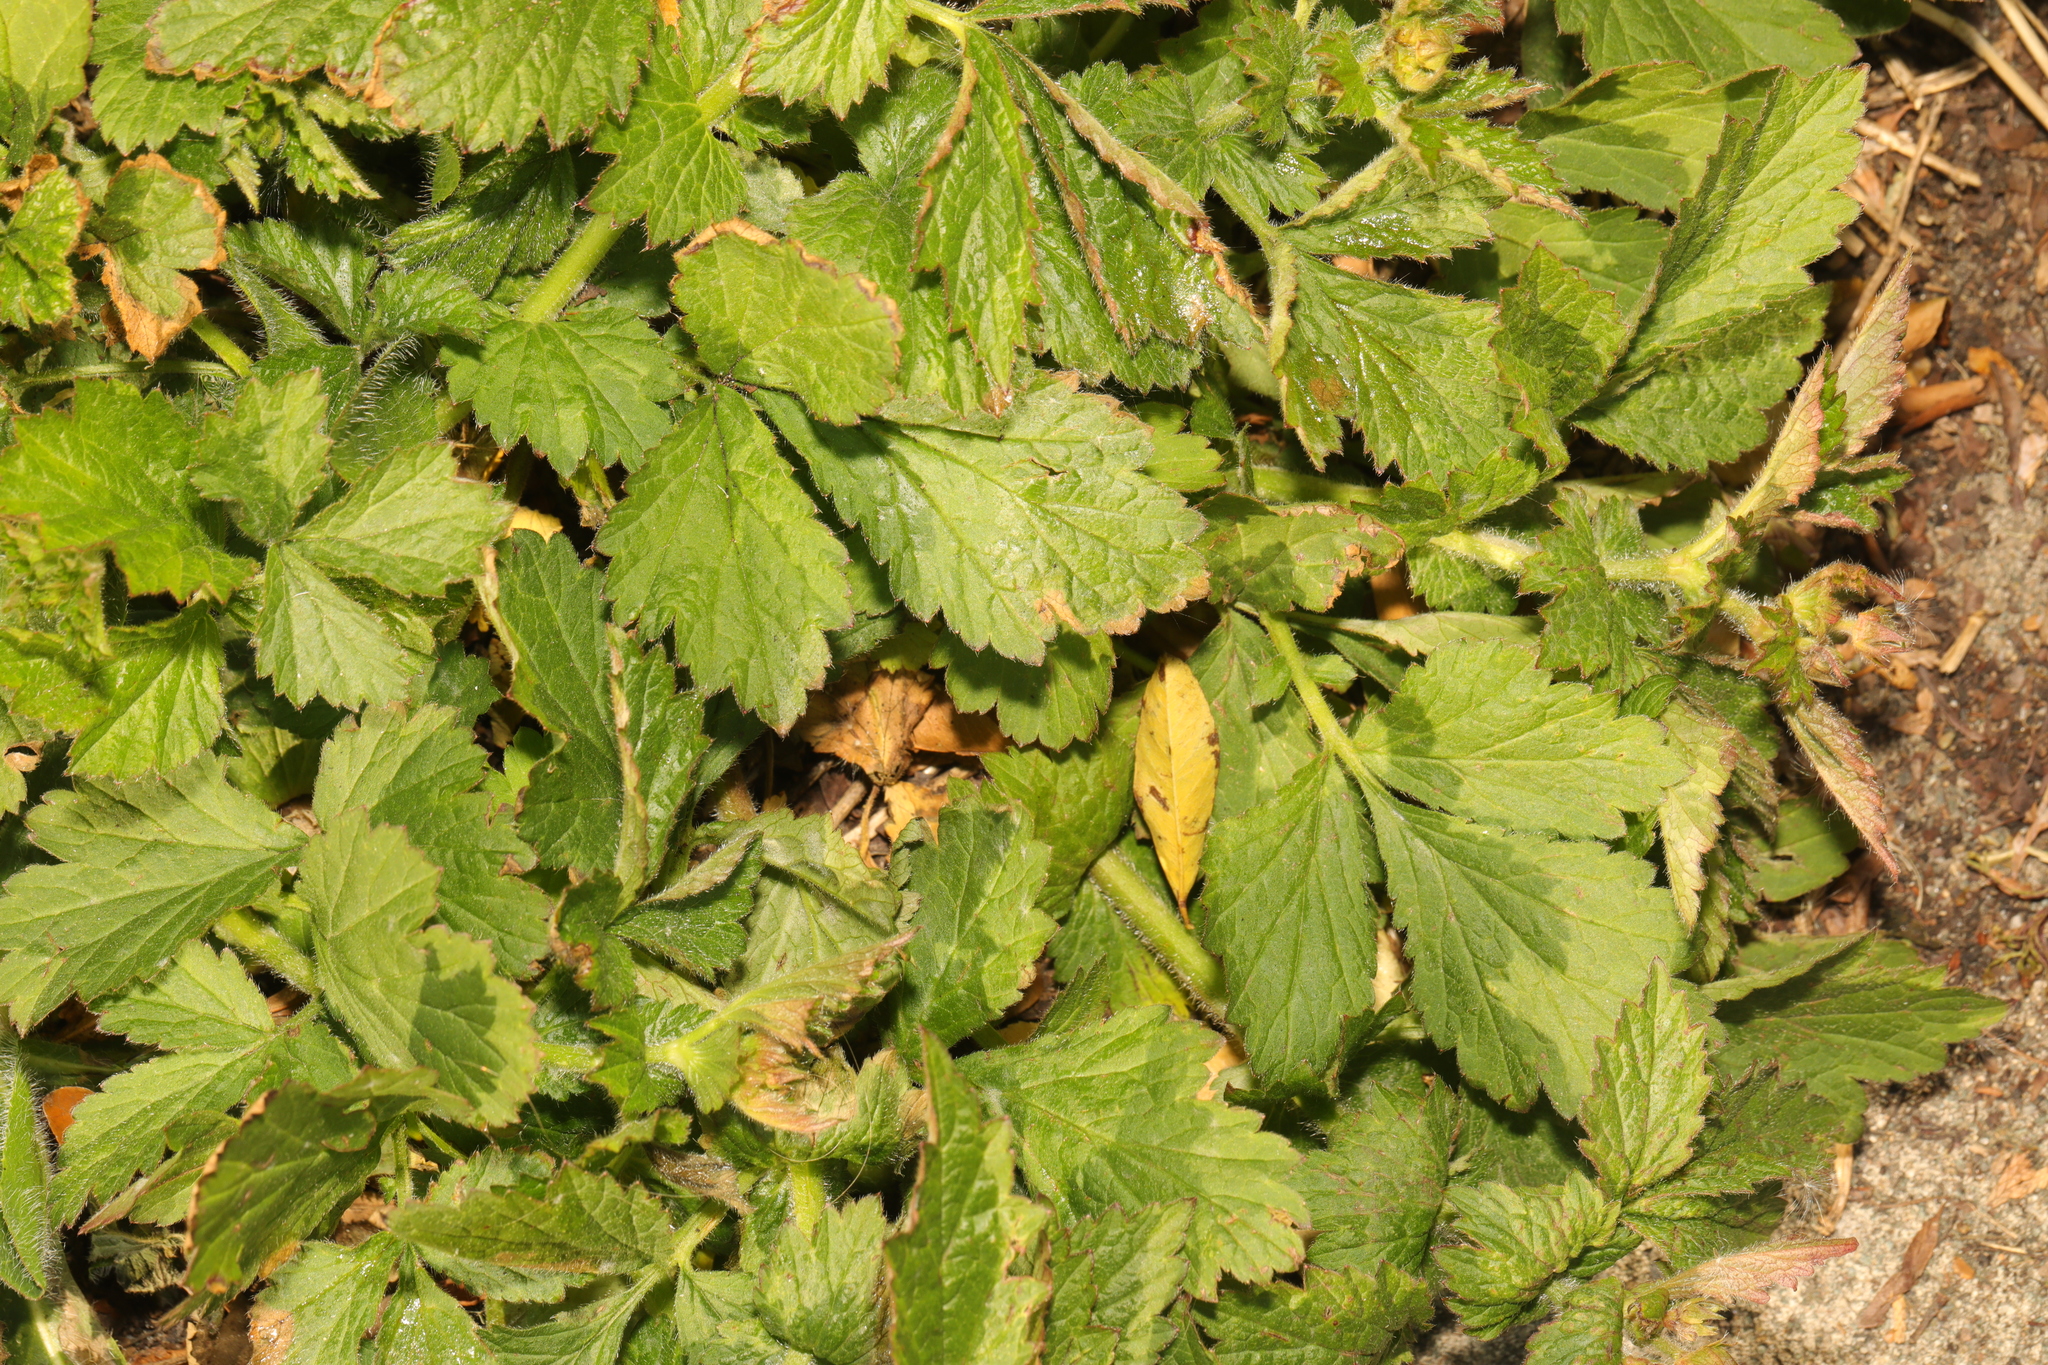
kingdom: Plantae
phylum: Tracheophyta
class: Magnoliopsida
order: Rosales
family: Rosaceae
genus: Geum
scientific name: Geum urbanum
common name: Wood avens
